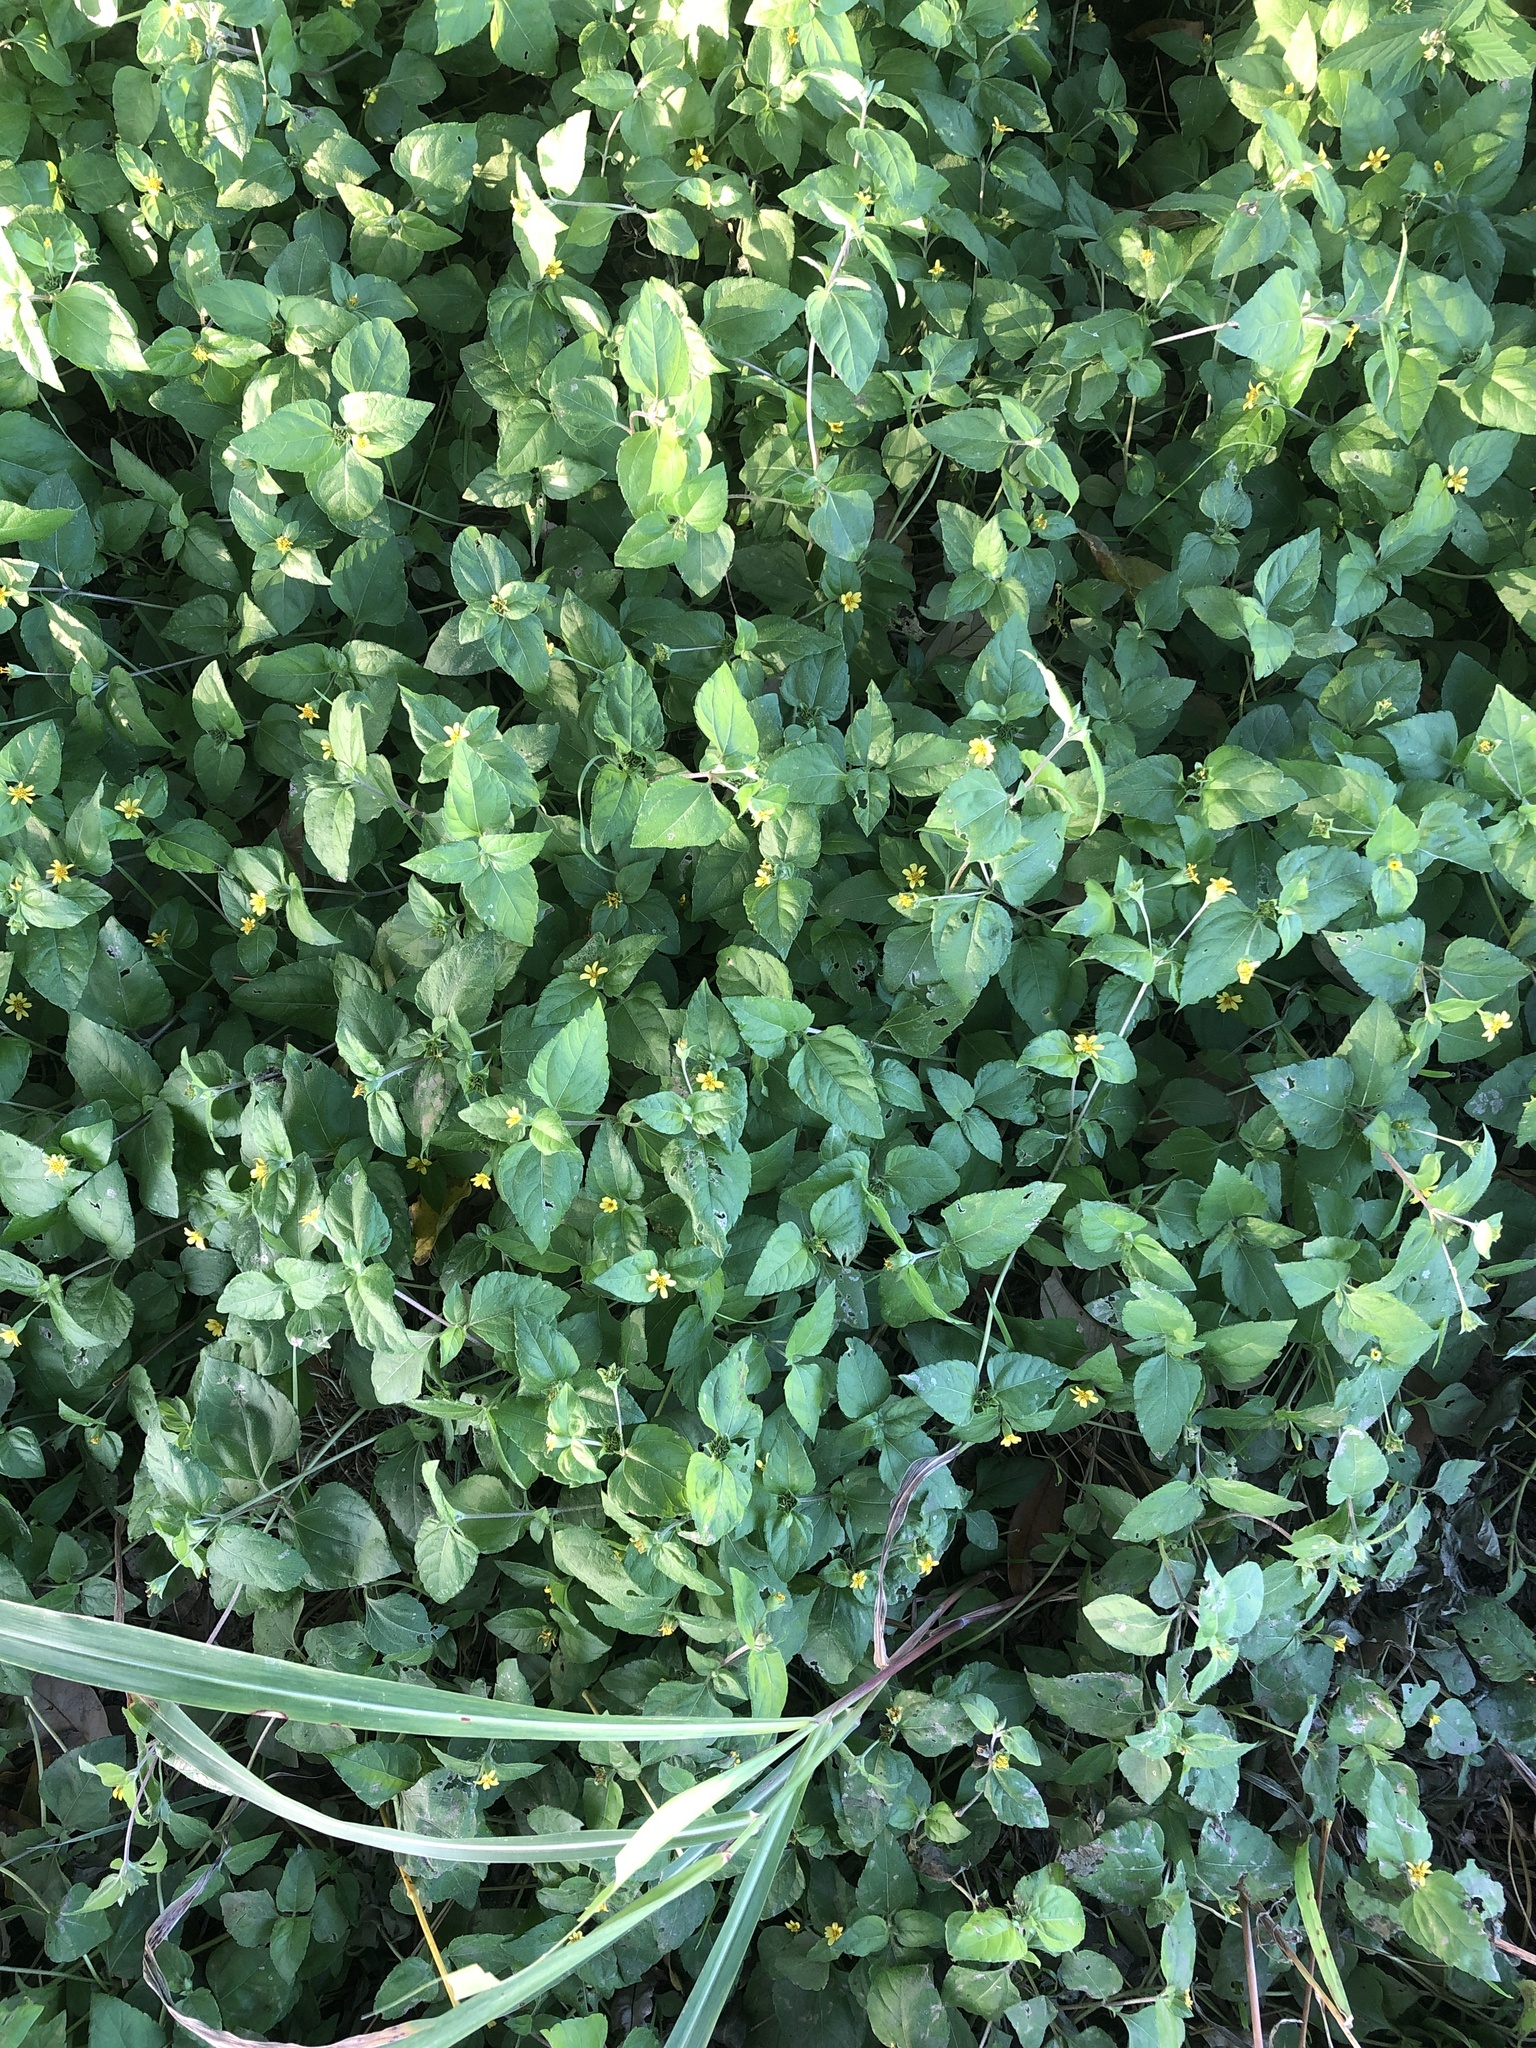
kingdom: Plantae
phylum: Tracheophyta
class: Magnoliopsida
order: Asterales
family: Asteraceae
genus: Calyptocarpus
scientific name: Calyptocarpus vialis
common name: Straggler daisy
